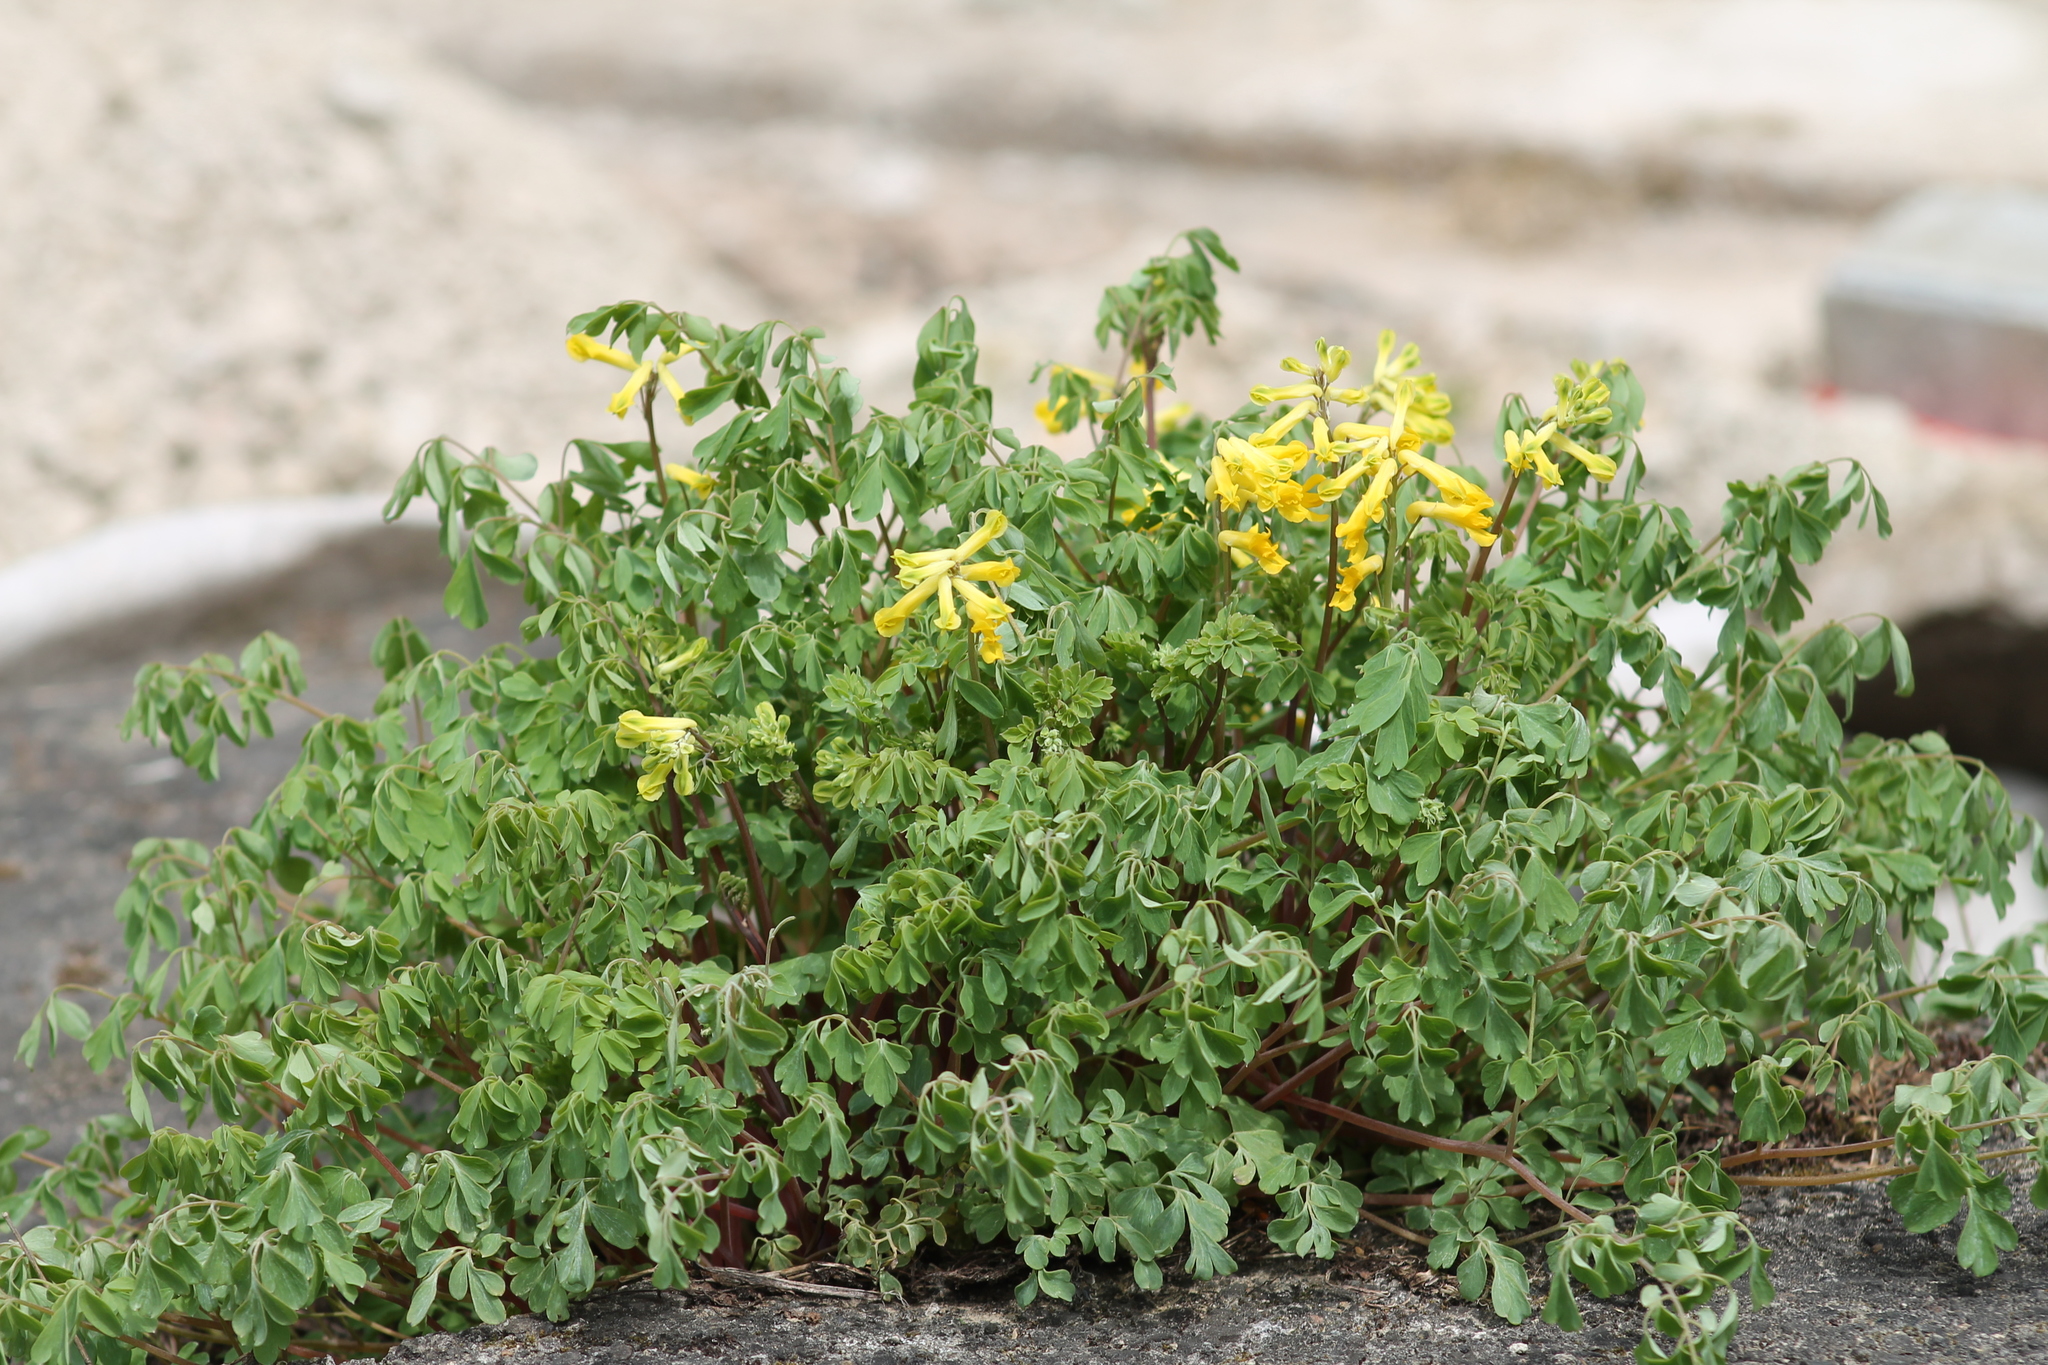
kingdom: Plantae
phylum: Tracheophyta
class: Magnoliopsida
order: Ranunculales
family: Papaveraceae
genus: Pseudofumaria
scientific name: Pseudofumaria lutea
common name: Yellow corydalis
